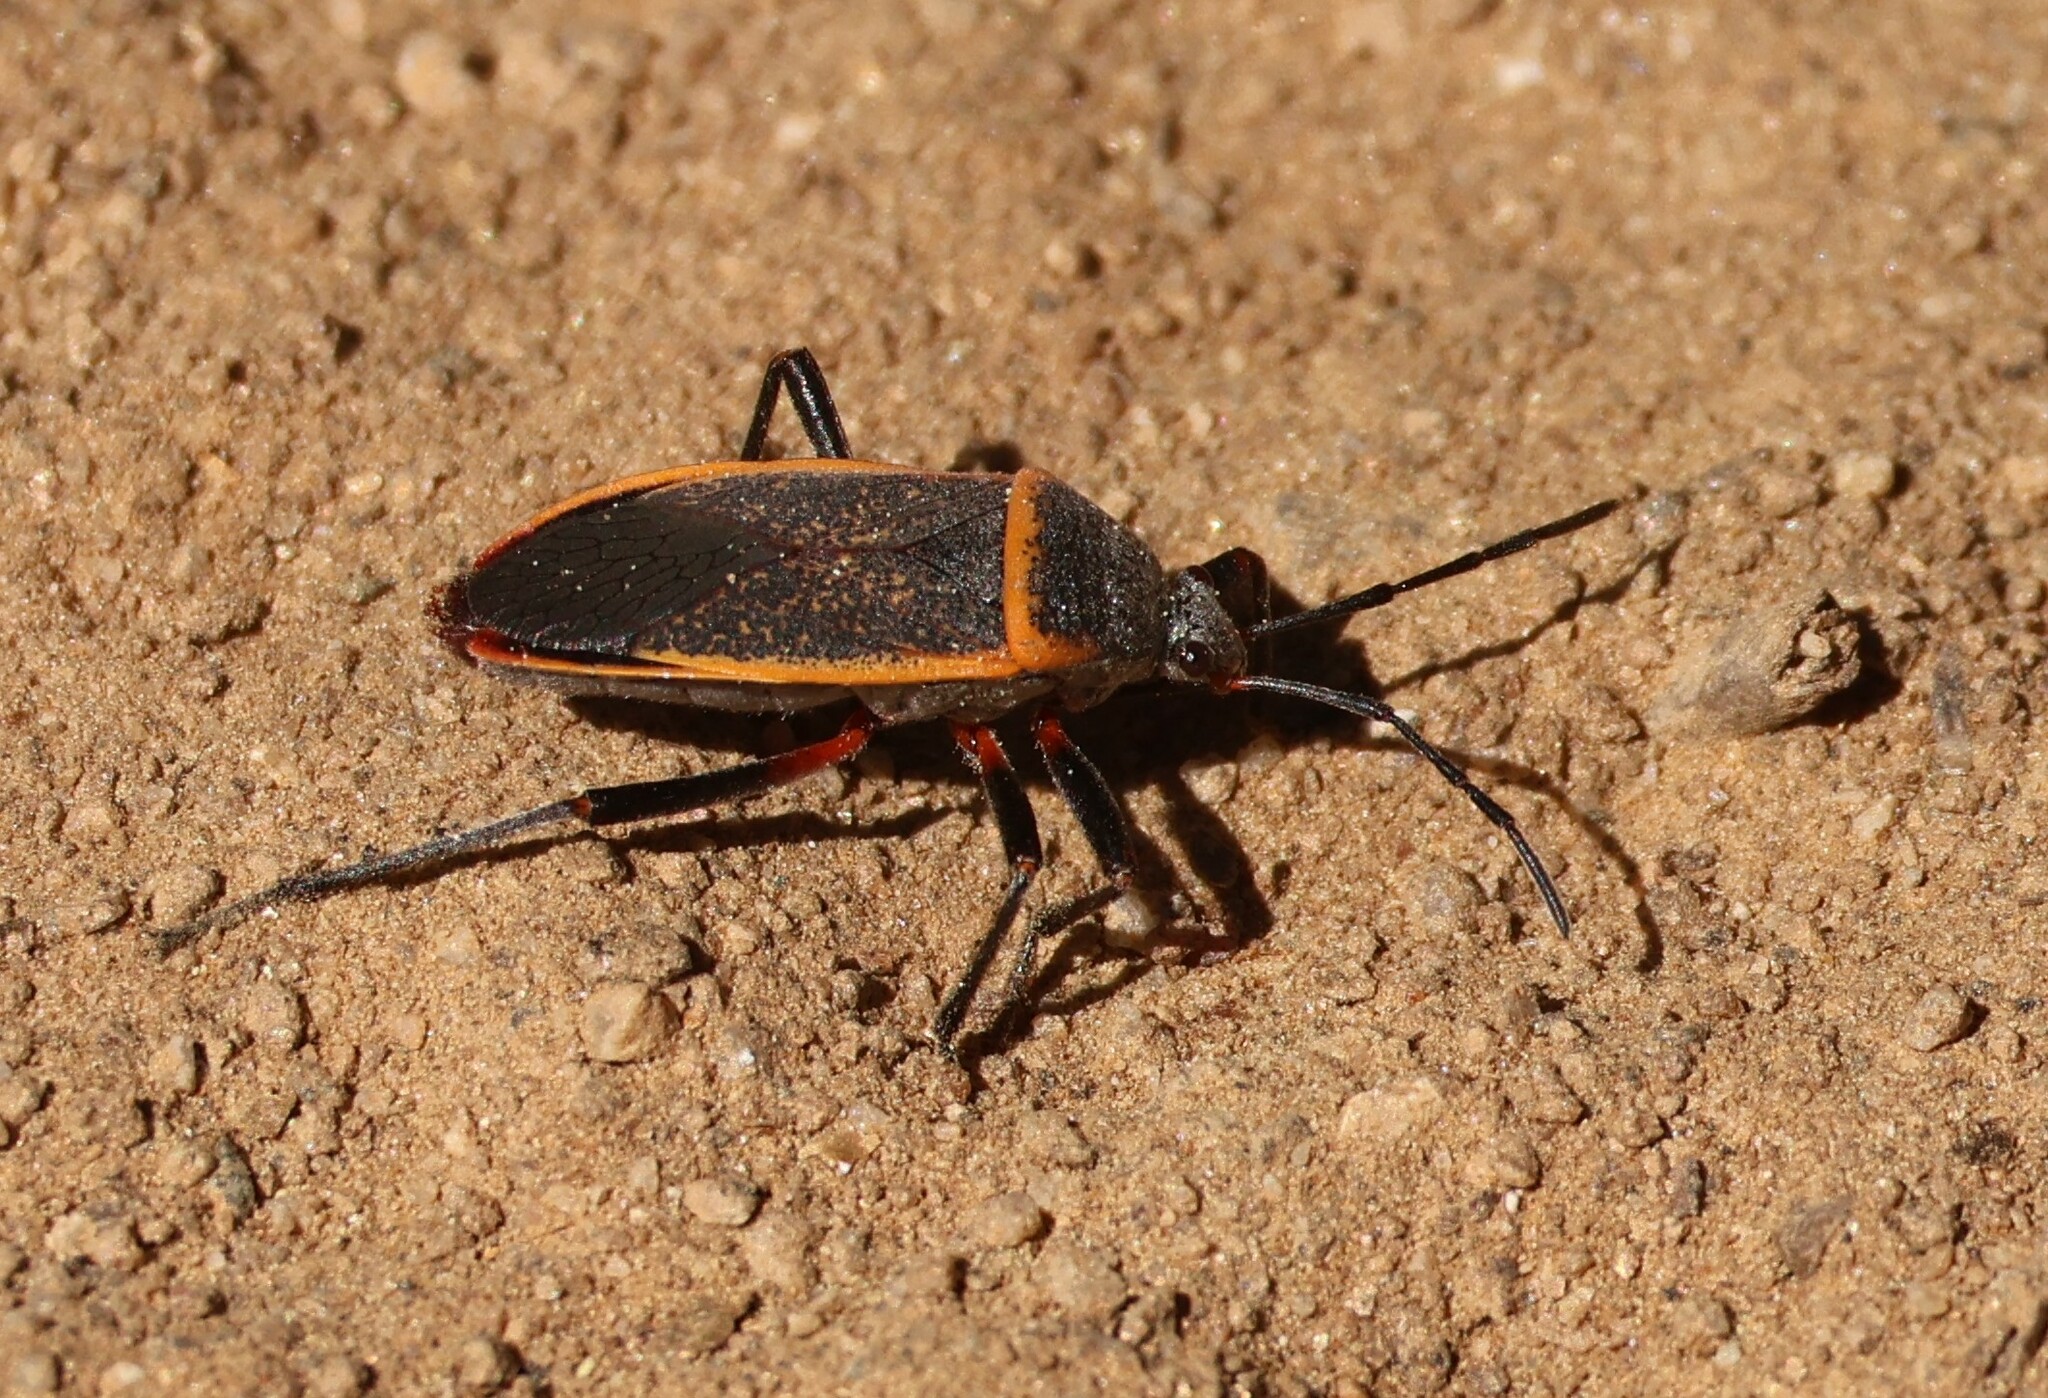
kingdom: Animalia
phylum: Arthropoda
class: Insecta
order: Hemiptera
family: Largidae
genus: Largus
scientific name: Largus californicus
